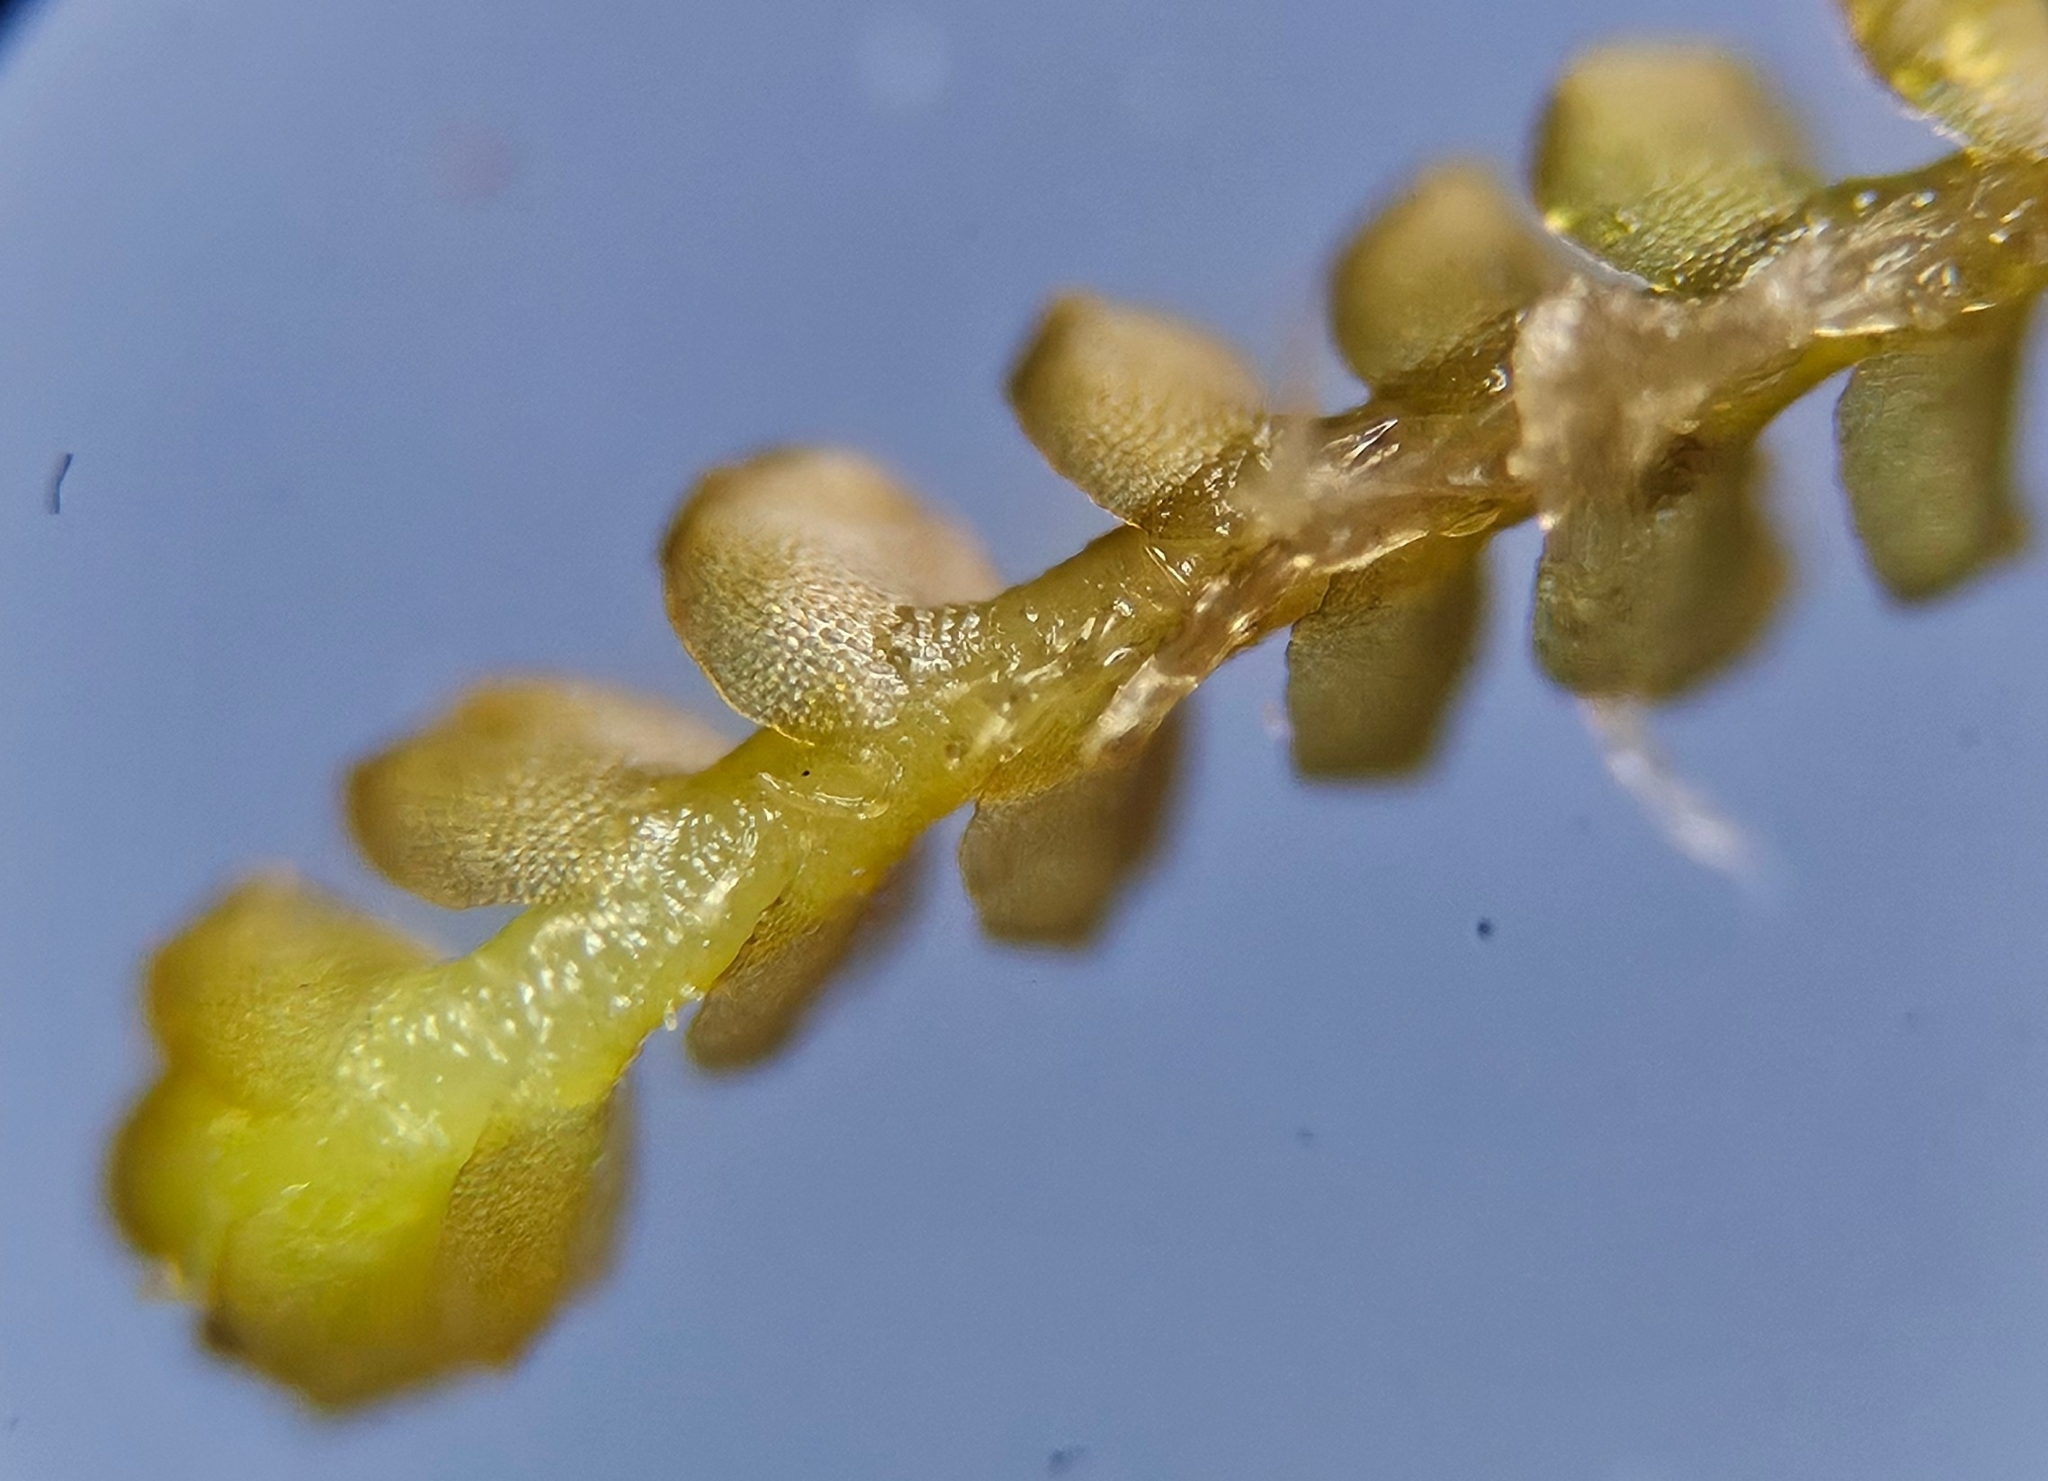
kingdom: Plantae
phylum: Marchantiophyta
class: Jungermanniopsida
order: Jungermanniales
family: Anastrophyllaceae
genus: Neoorthocaulis
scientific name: Neoorthocaulis floerkei
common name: Floerke's barbilophozia
